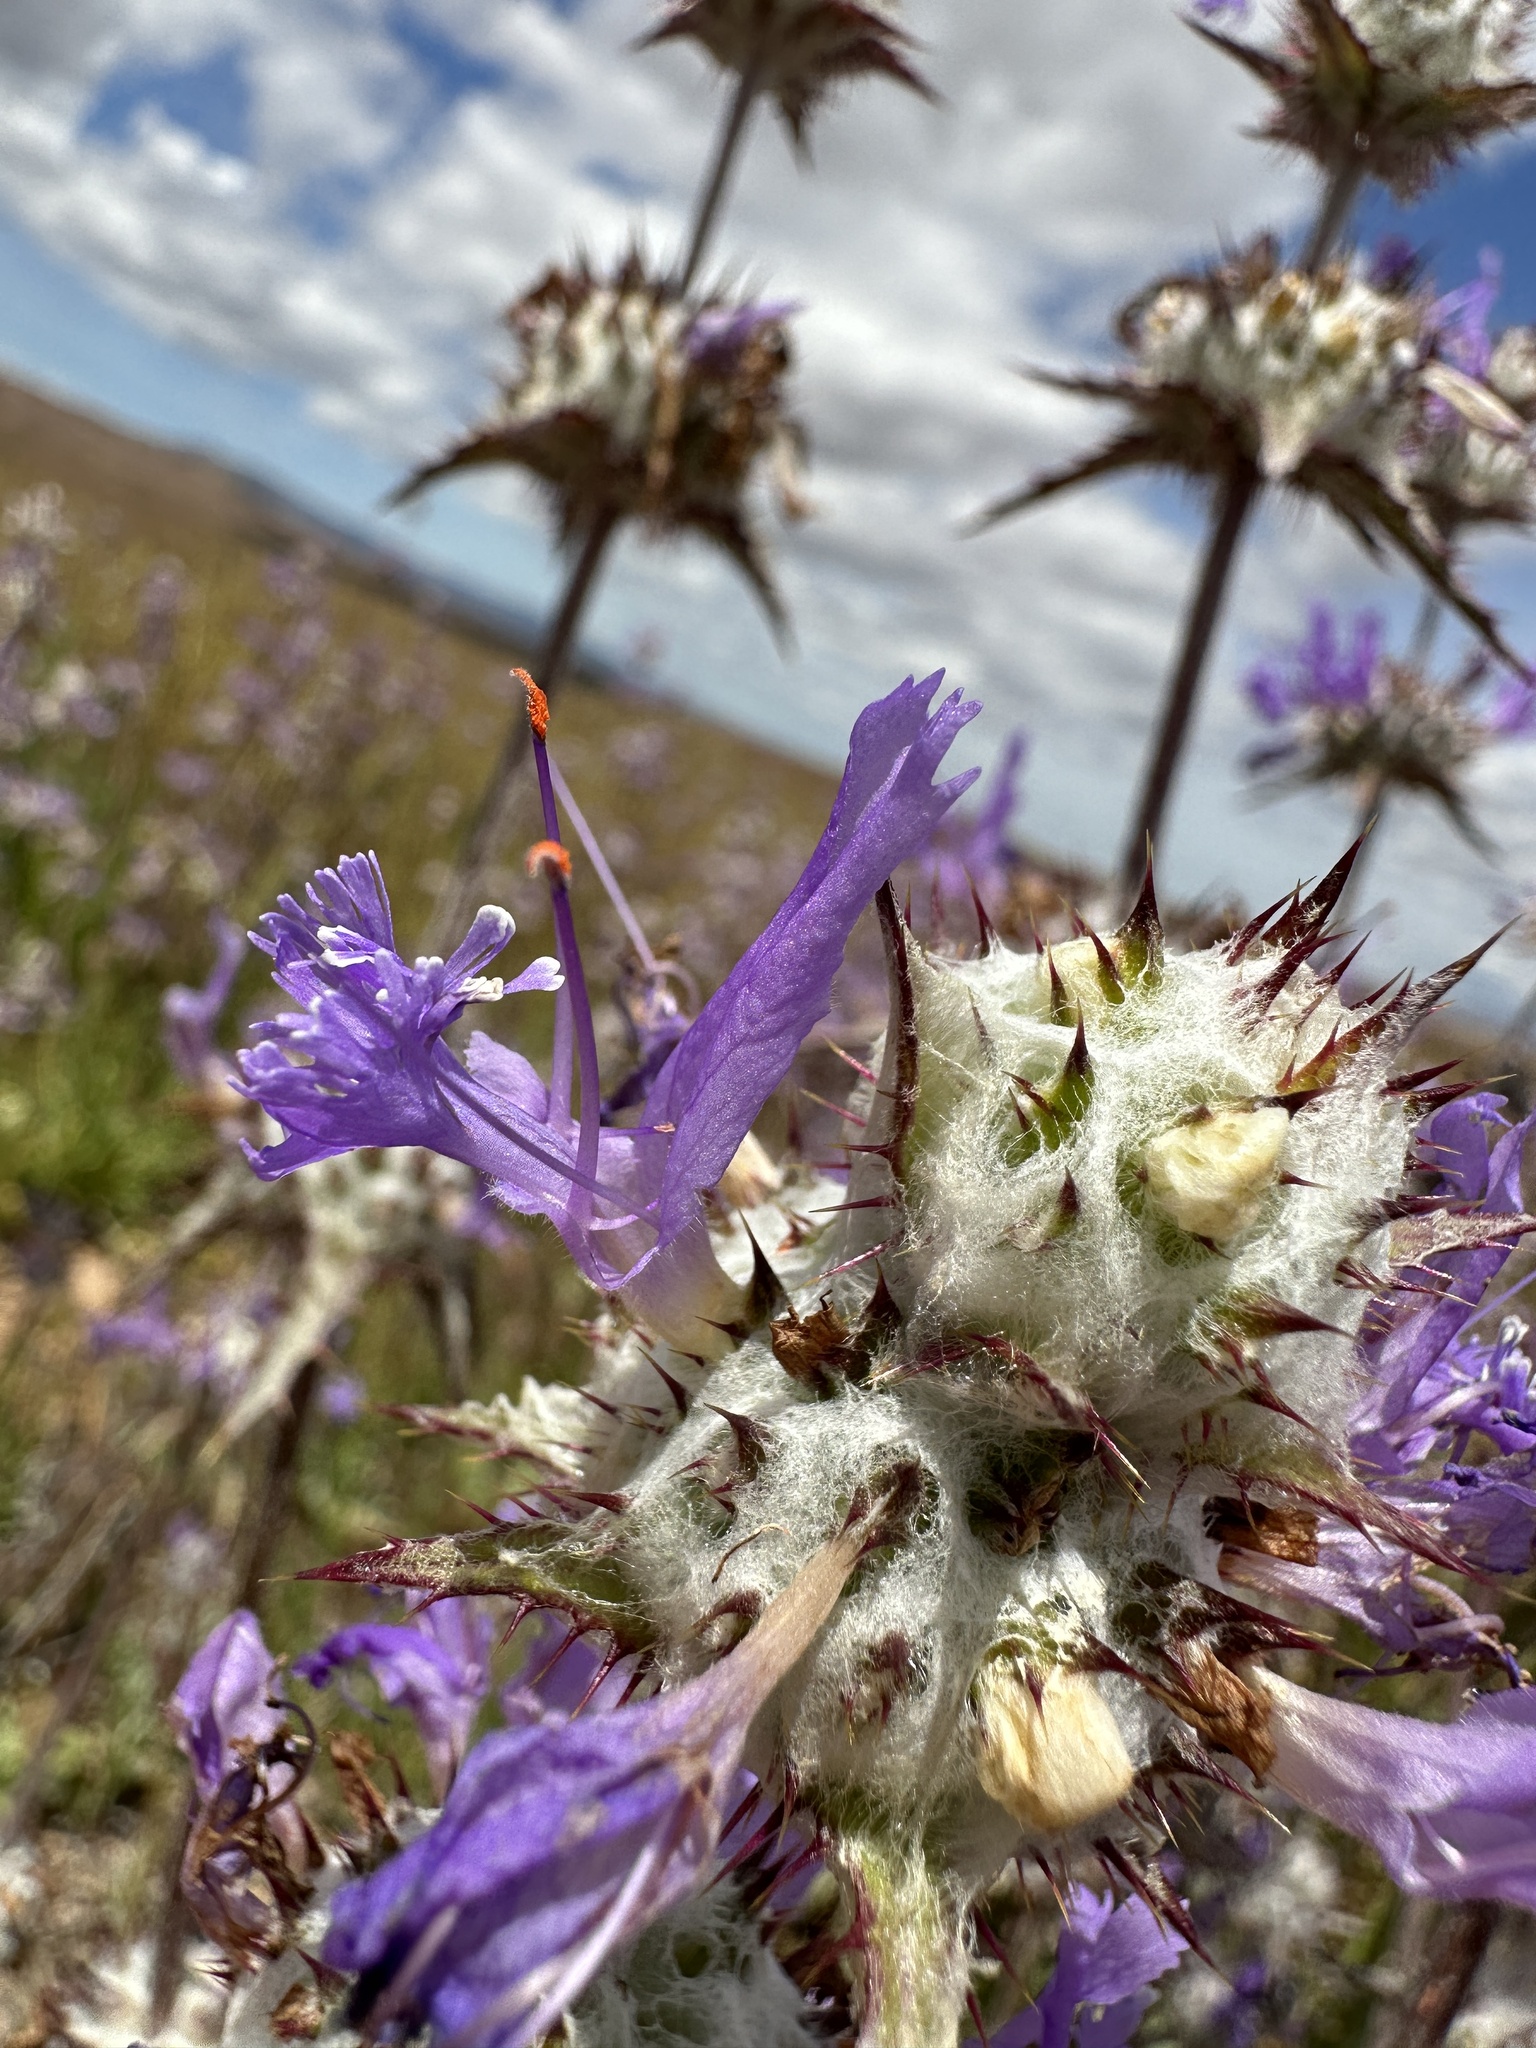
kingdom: Plantae
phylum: Tracheophyta
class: Magnoliopsida
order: Lamiales
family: Lamiaceae
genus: Salvia
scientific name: Salvia carduacea
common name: Thistle sage
